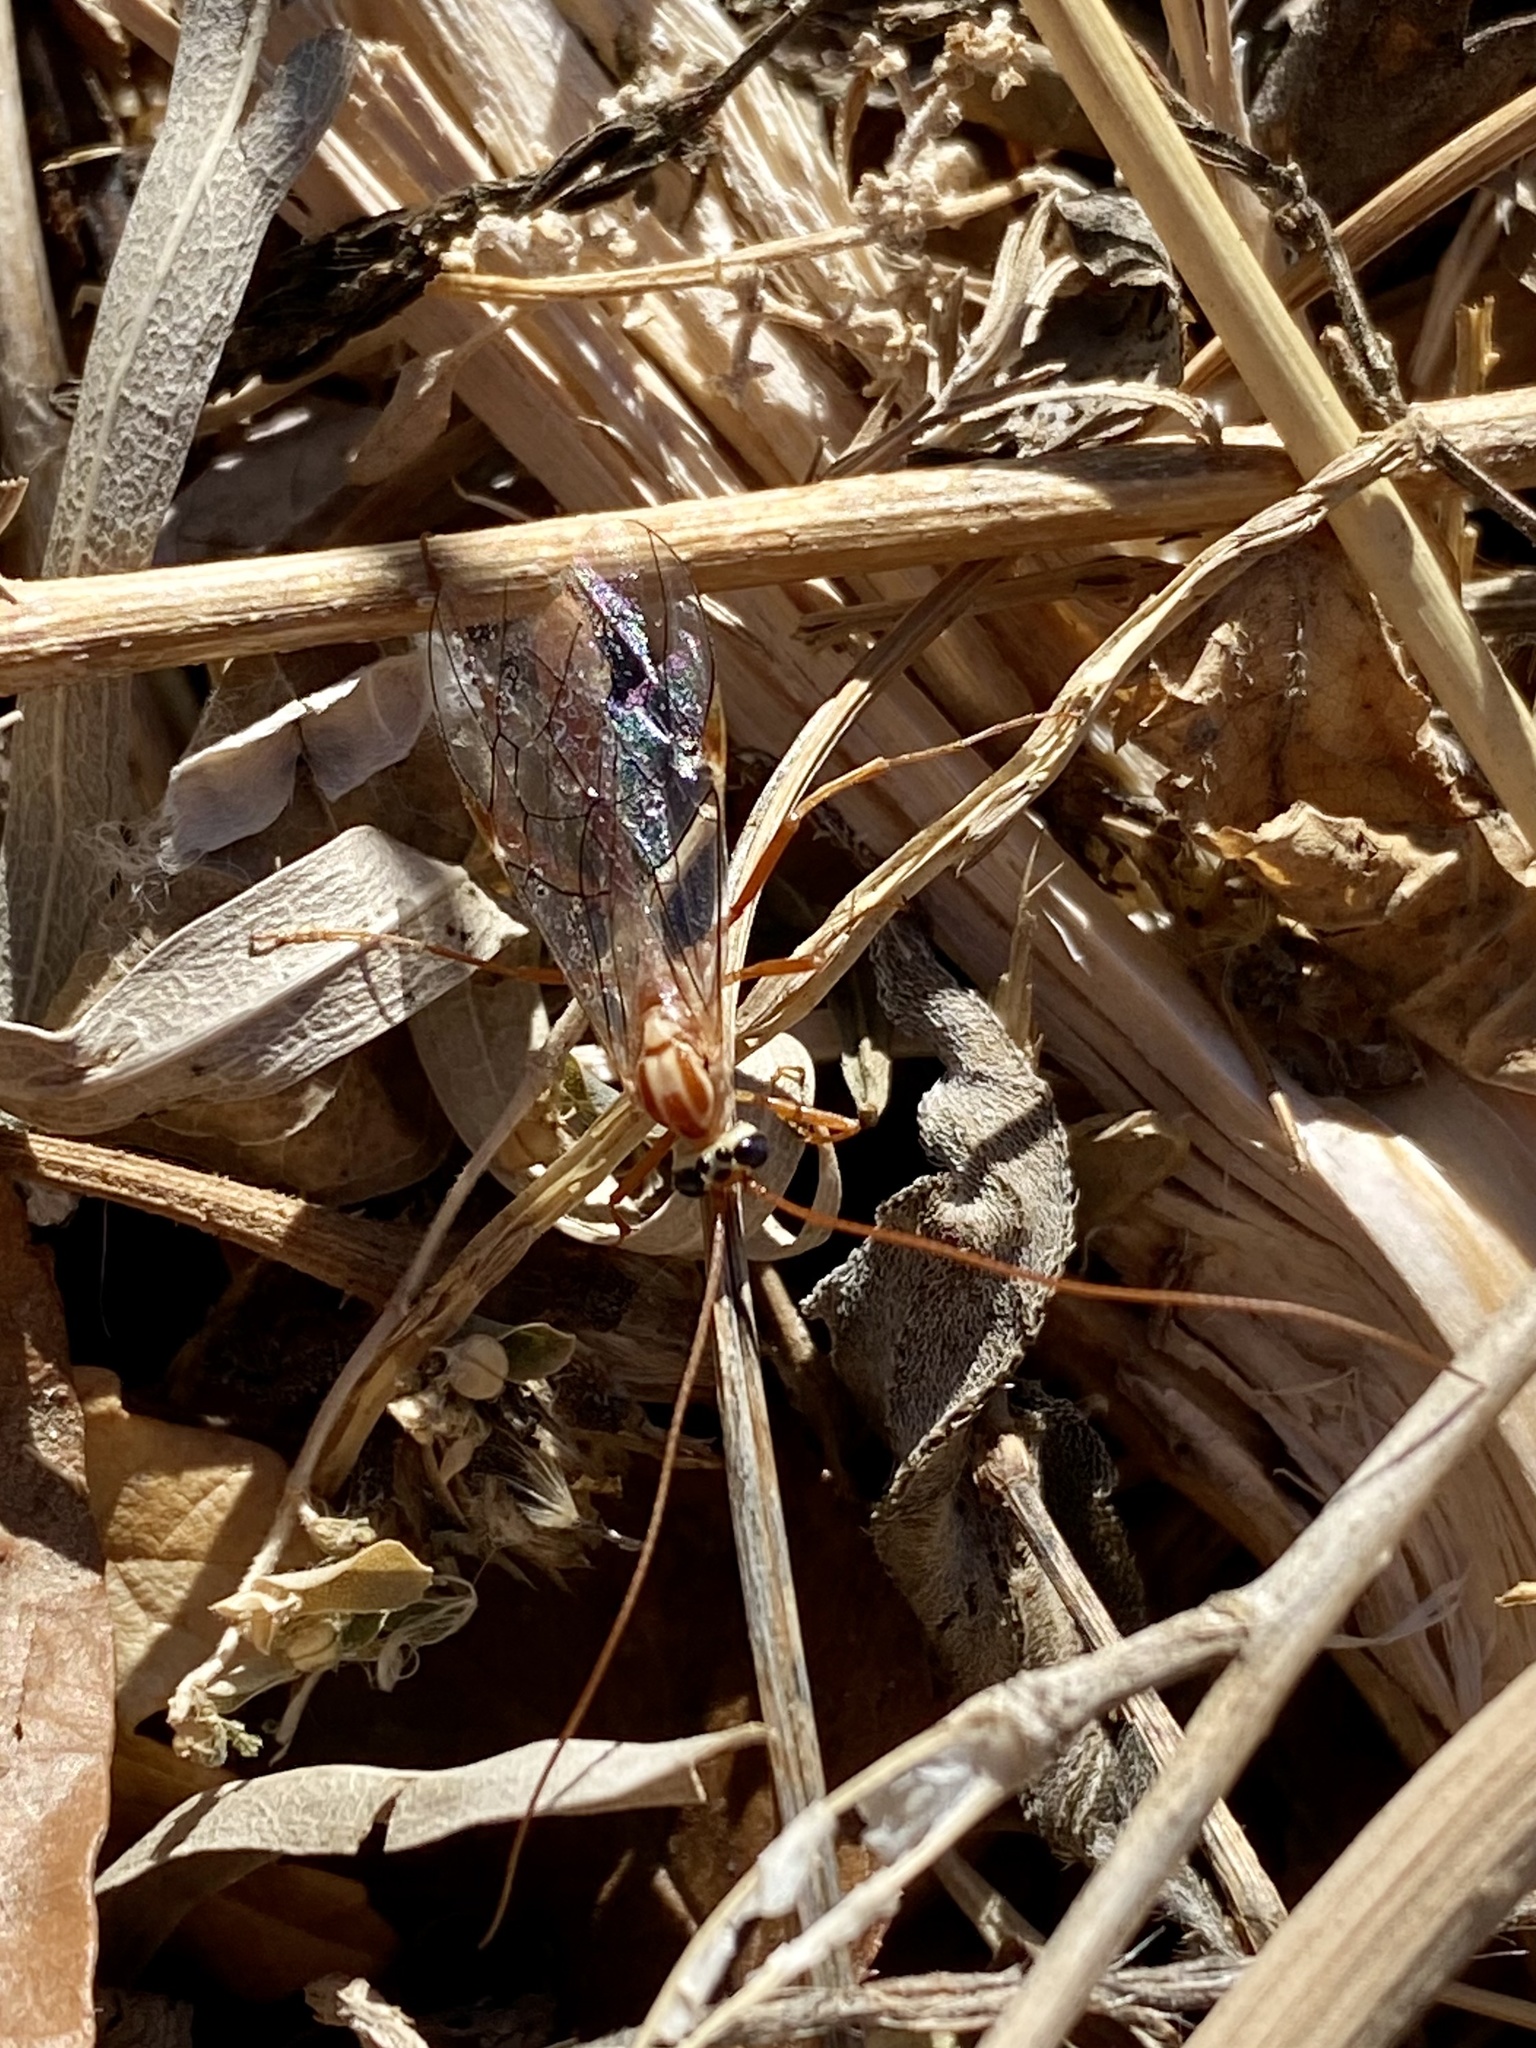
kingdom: Animalia
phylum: Arthropoda
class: Insecta
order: Hymenoptera
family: Ichneumonidae
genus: Ophion
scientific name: Ophion
